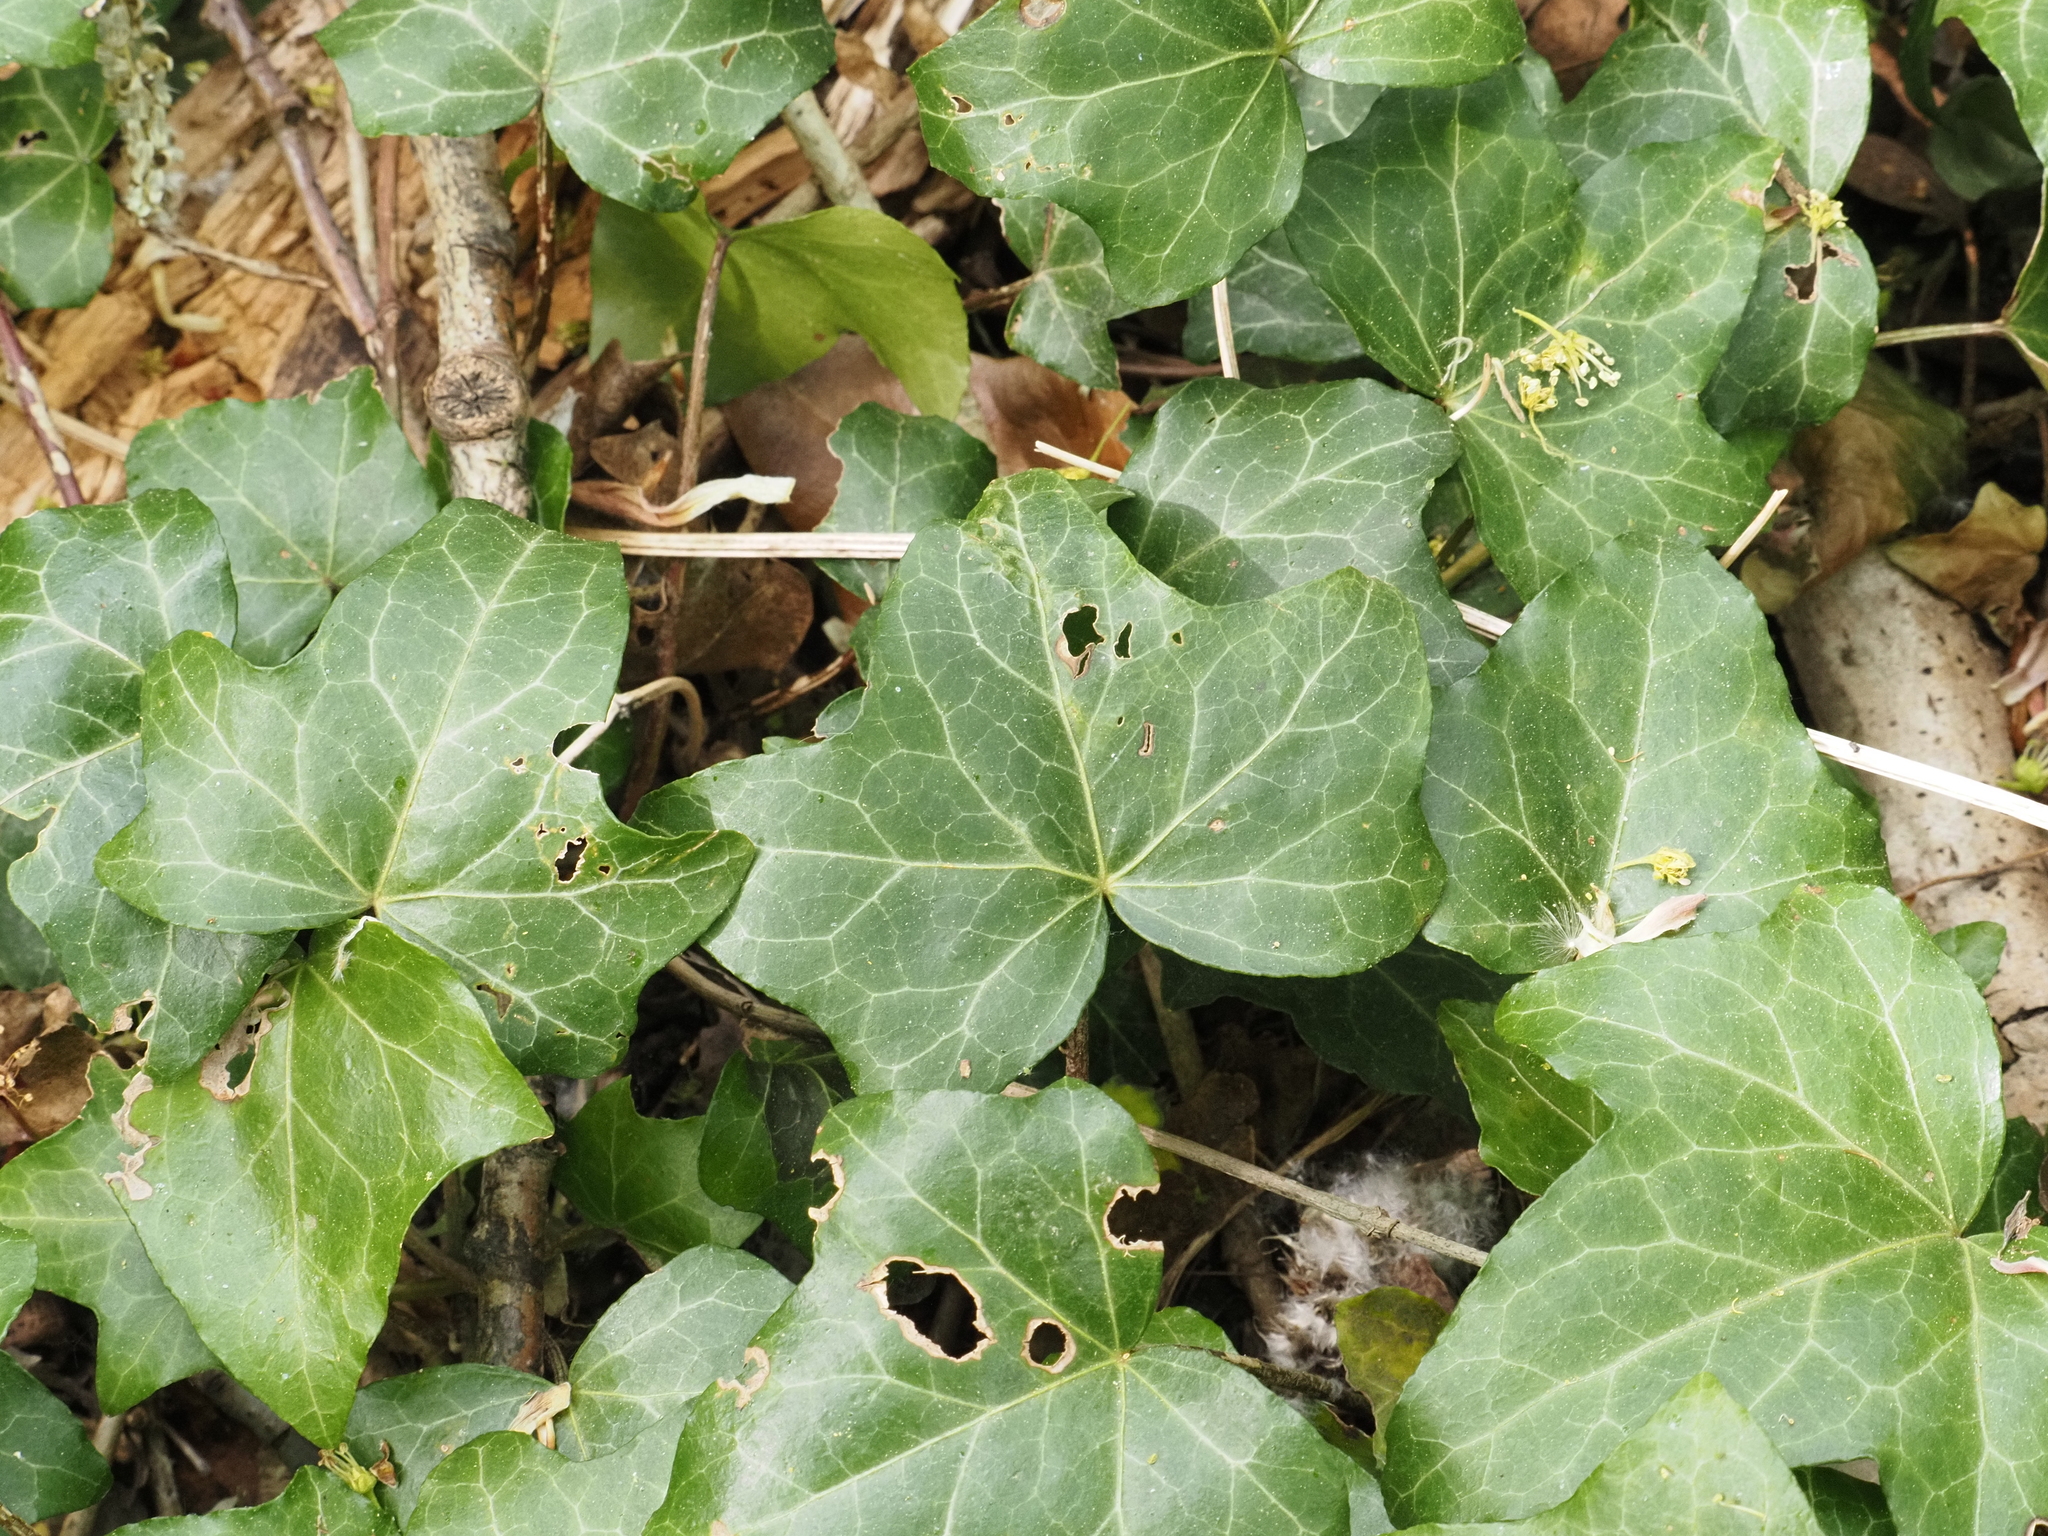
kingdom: Plantae
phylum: Tracheophyta
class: Magnoliopsida
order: Apiales
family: Araliaceae
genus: Hedera
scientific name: Hedera helix
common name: Ivy
